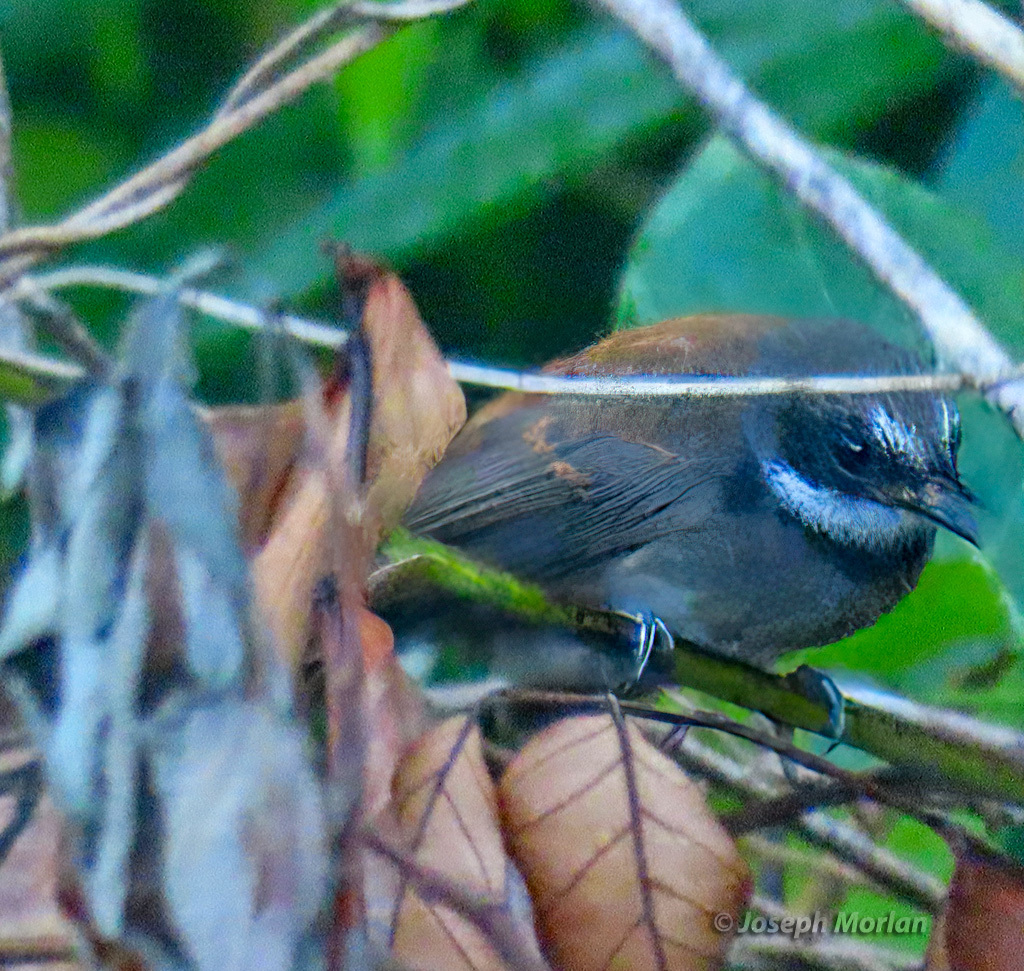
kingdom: Animalia
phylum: Chordata
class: Aves
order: Passeriformes
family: Rhipiduridae
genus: Rhipidura
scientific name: Rhipidura
